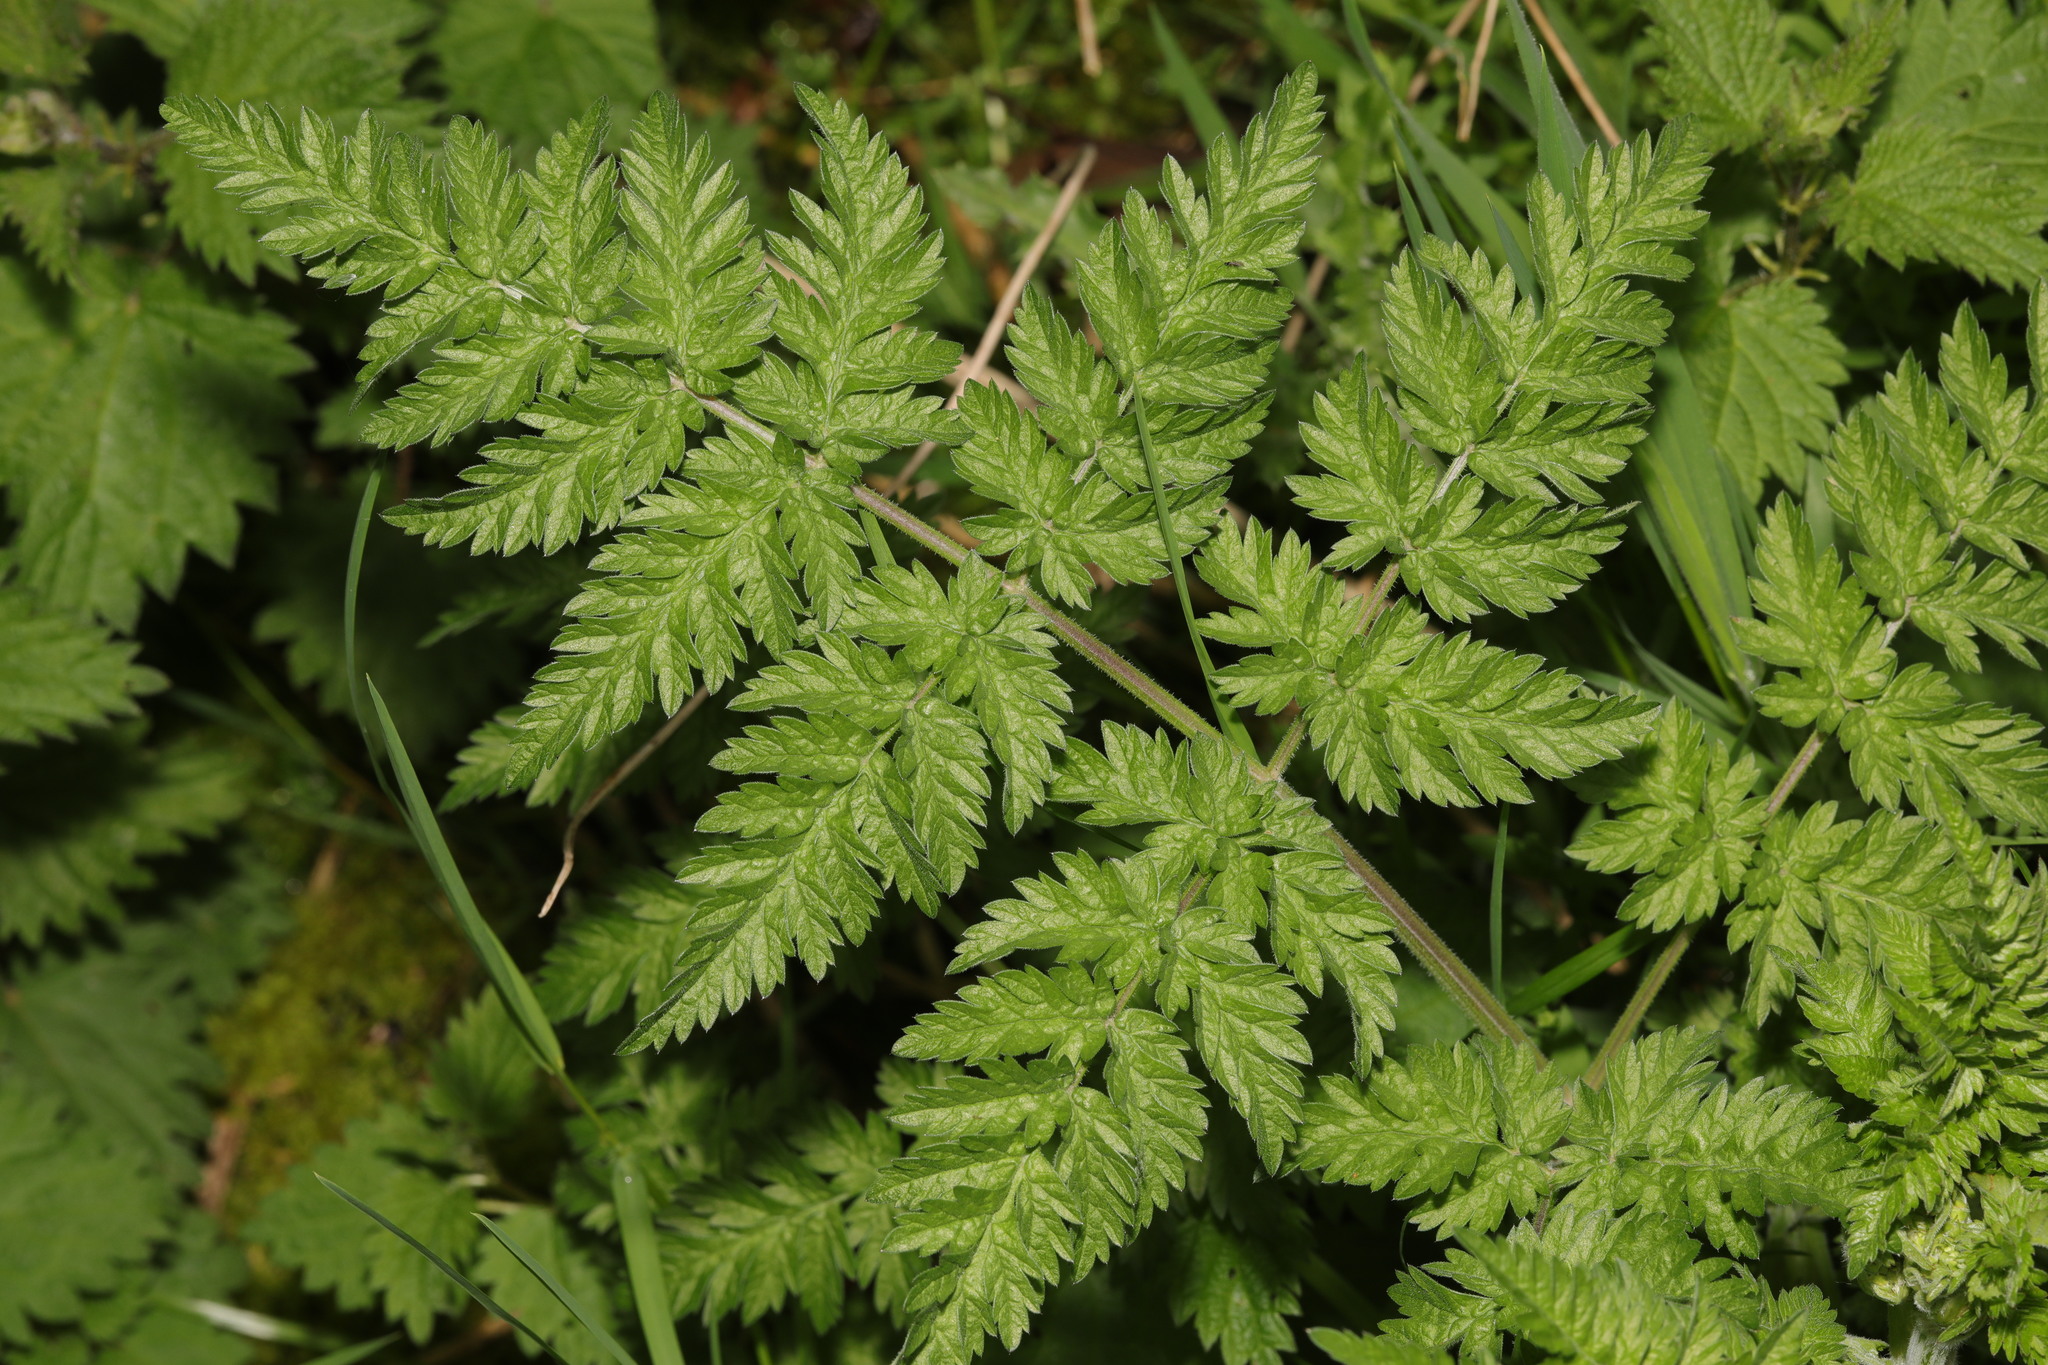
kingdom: Plantae
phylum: Tracheophyta
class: Magnoliopsida
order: Apiales
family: Apiaceae
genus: Anthriscus
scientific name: Anthriscus sylvestris
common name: Cow parsley
